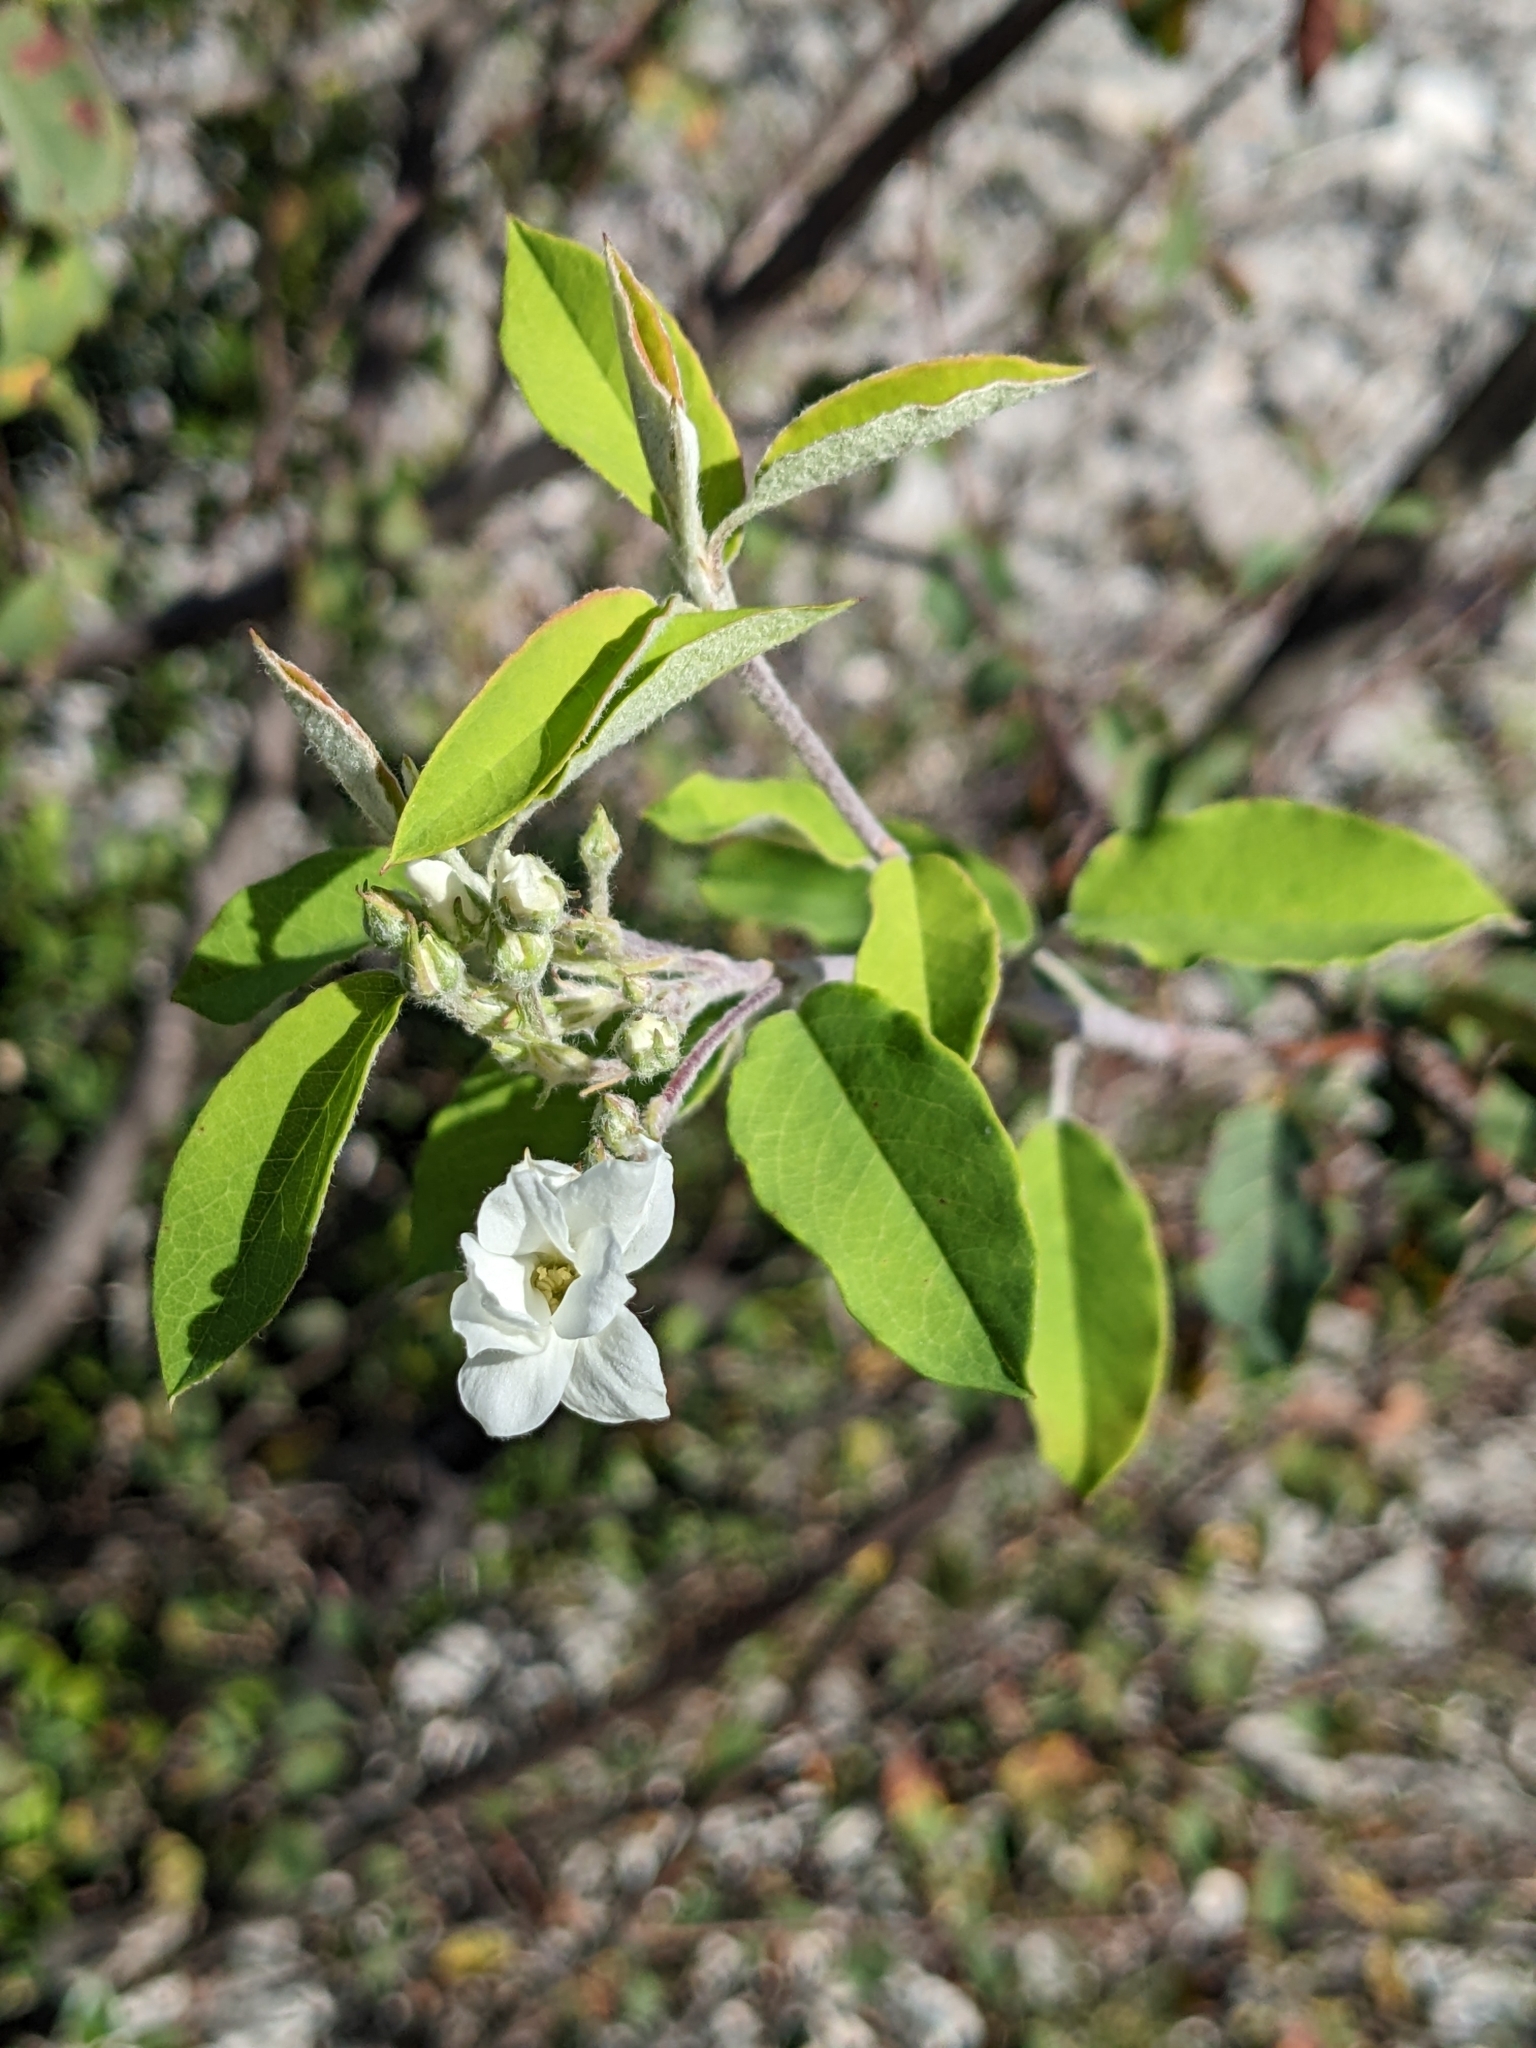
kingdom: Plantae
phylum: Tracheophyta
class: Magnoliopsida
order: Rosales
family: Rosaceae
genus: Amelanchier
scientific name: Amelanchier ovalis
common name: Serviceberry
